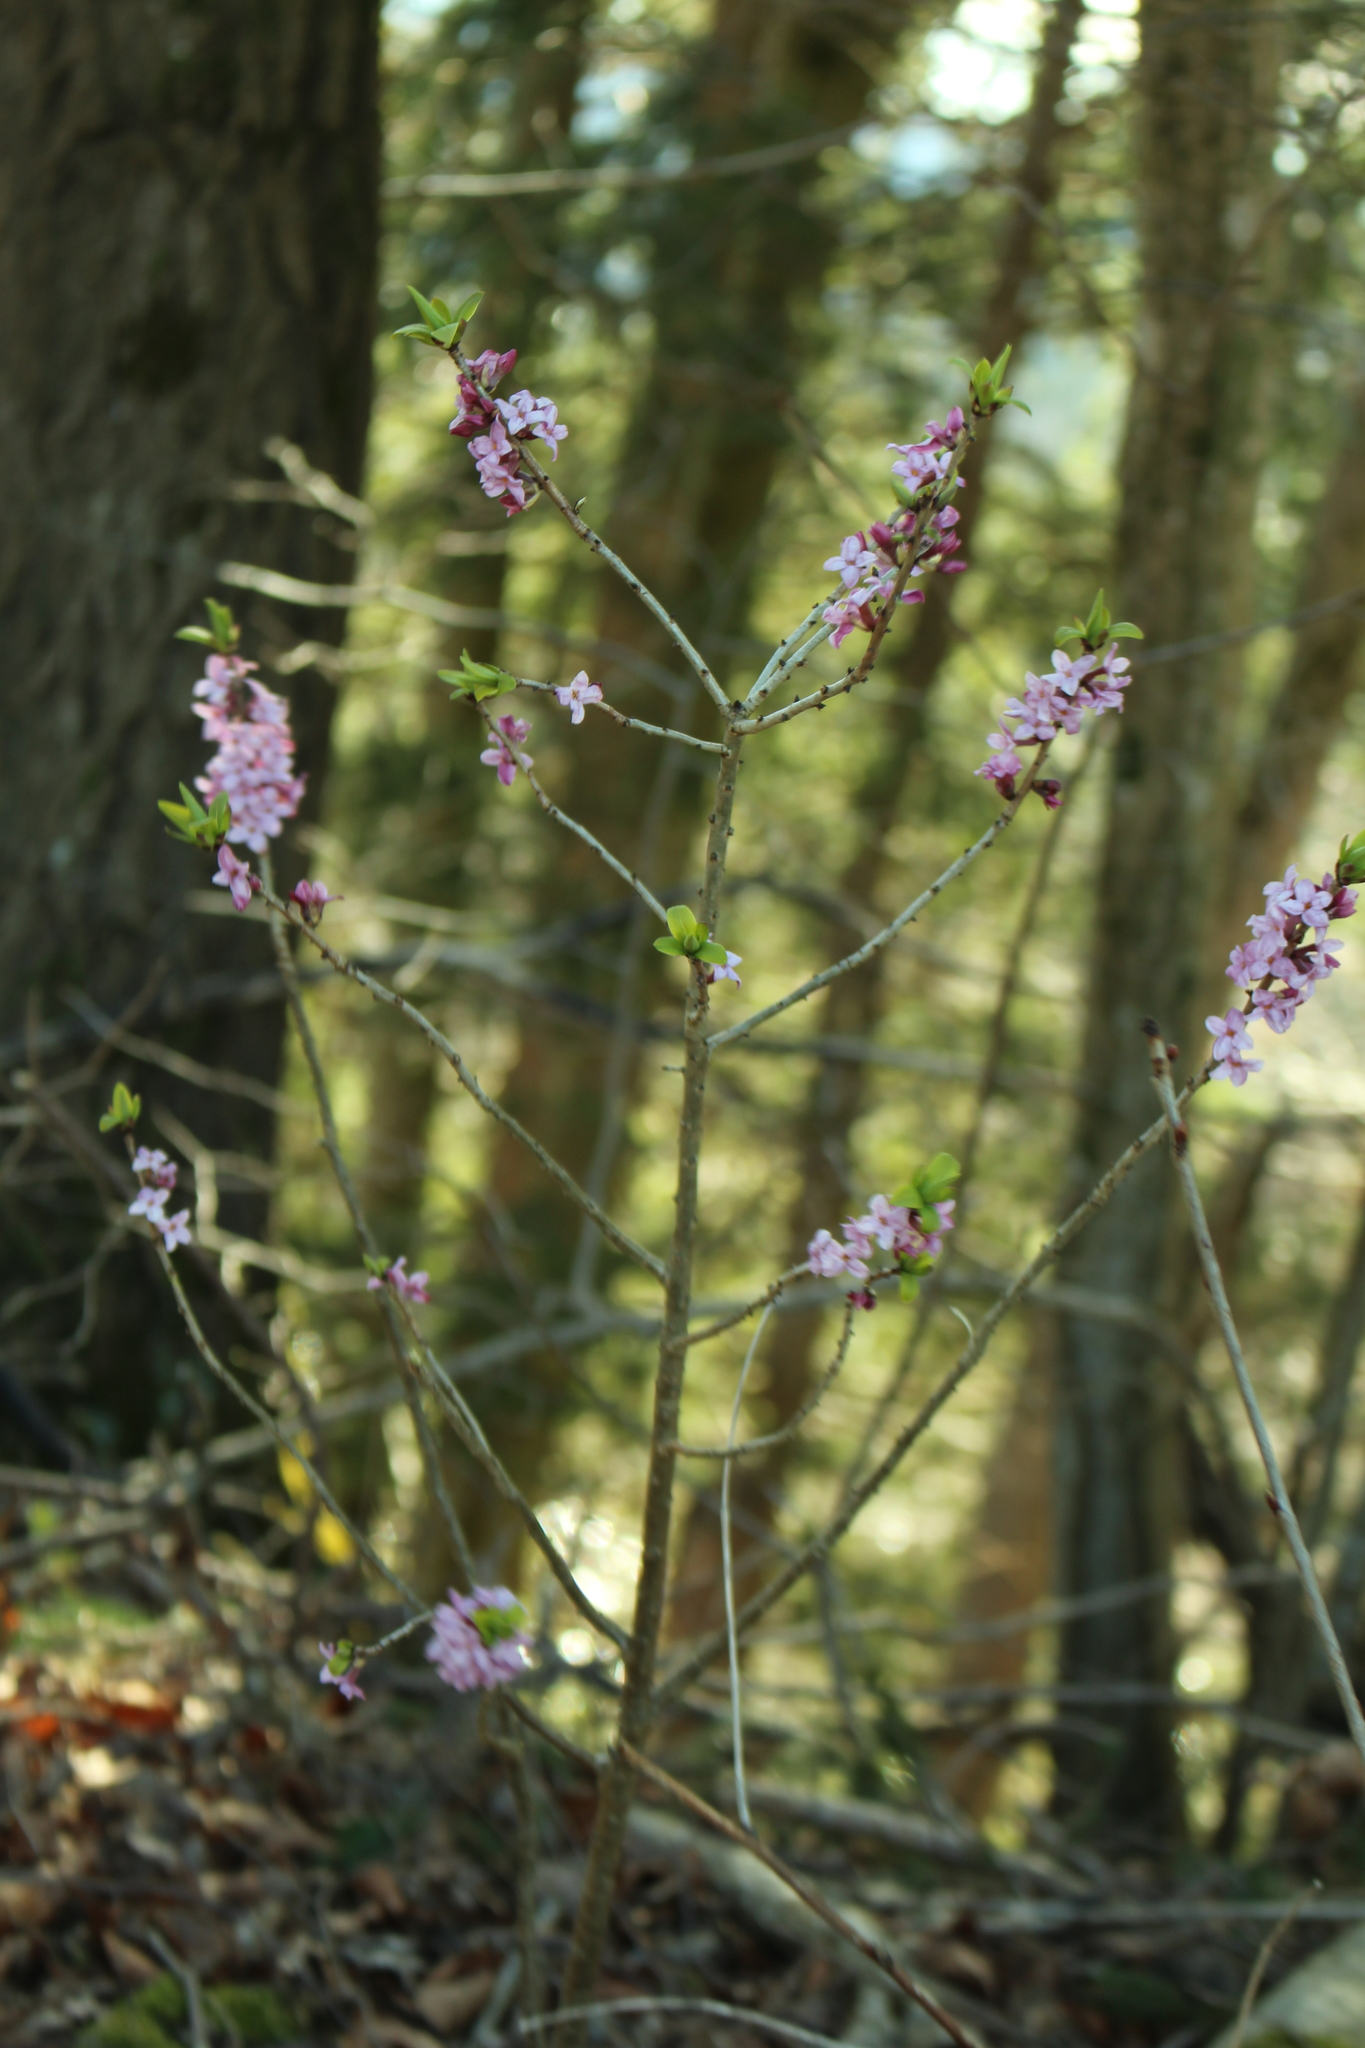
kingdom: Plantae
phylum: Tracheophyta
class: Magnoliopsida
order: Malvales
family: Thymelaeaceae
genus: Daphne
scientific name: Daphne mezereum
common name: Mezereon
